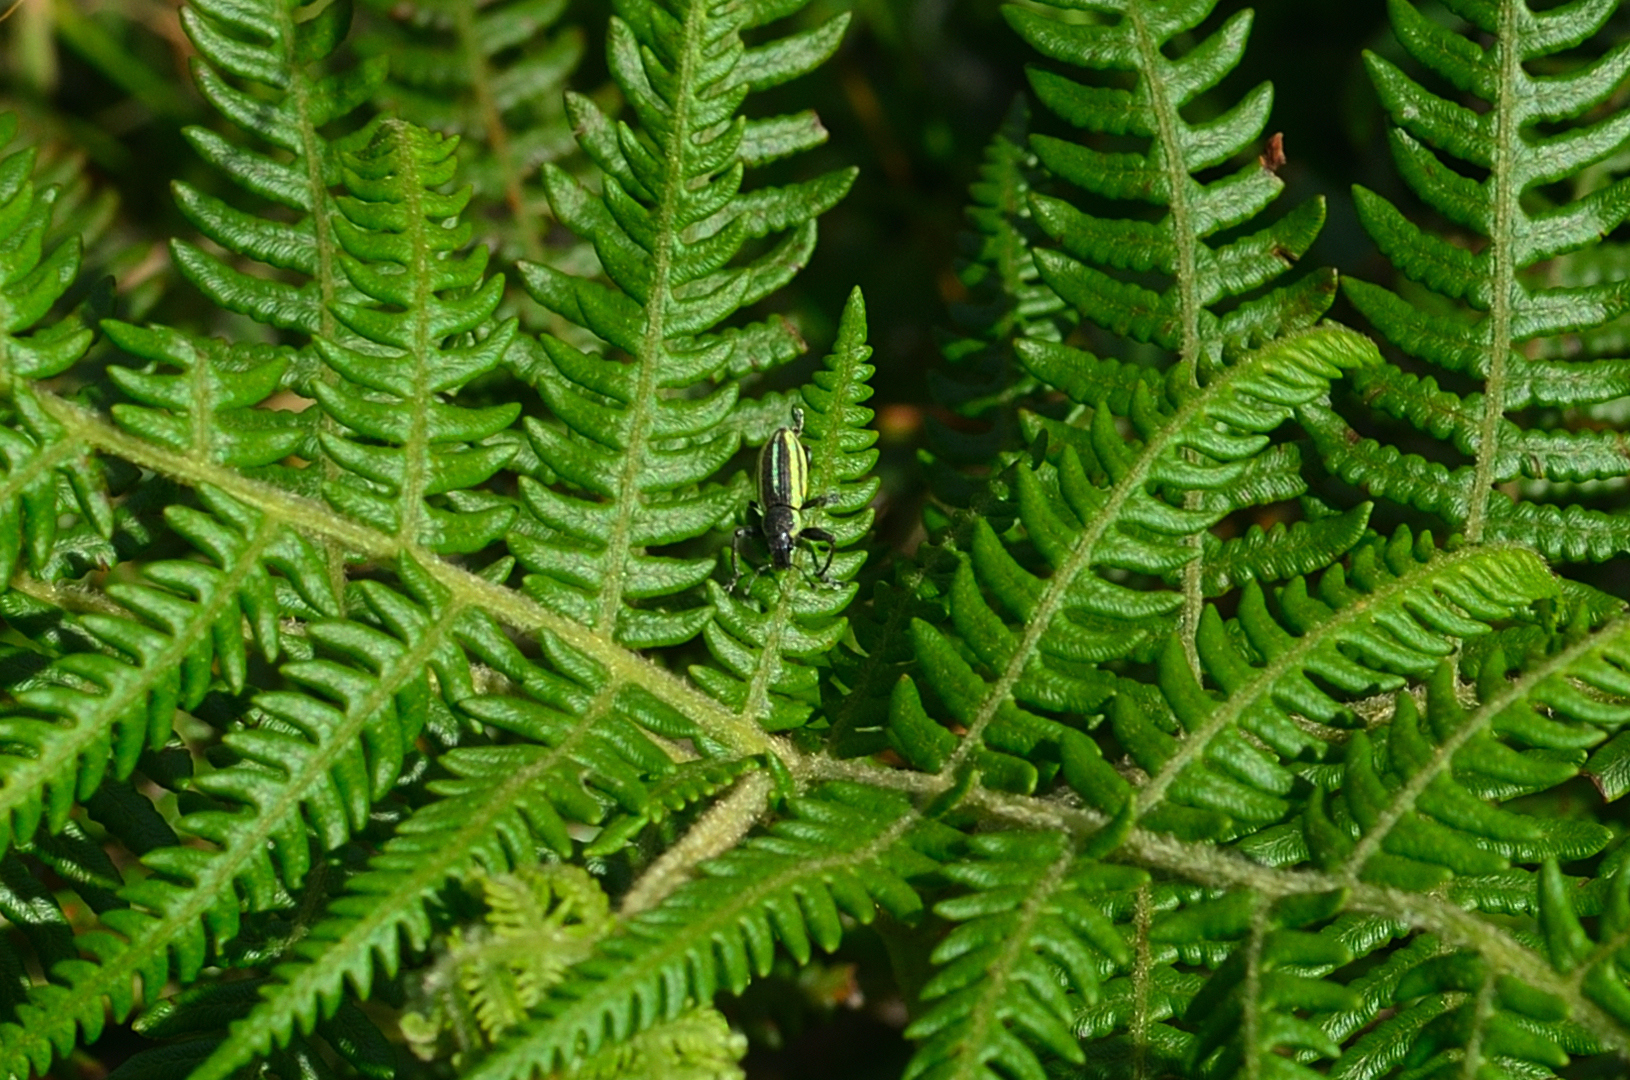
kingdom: Animalia
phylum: Arthropoda
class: Insecta
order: Coleoptera
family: Curculionidae
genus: Lepropus
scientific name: Lepropus aurovittatus
